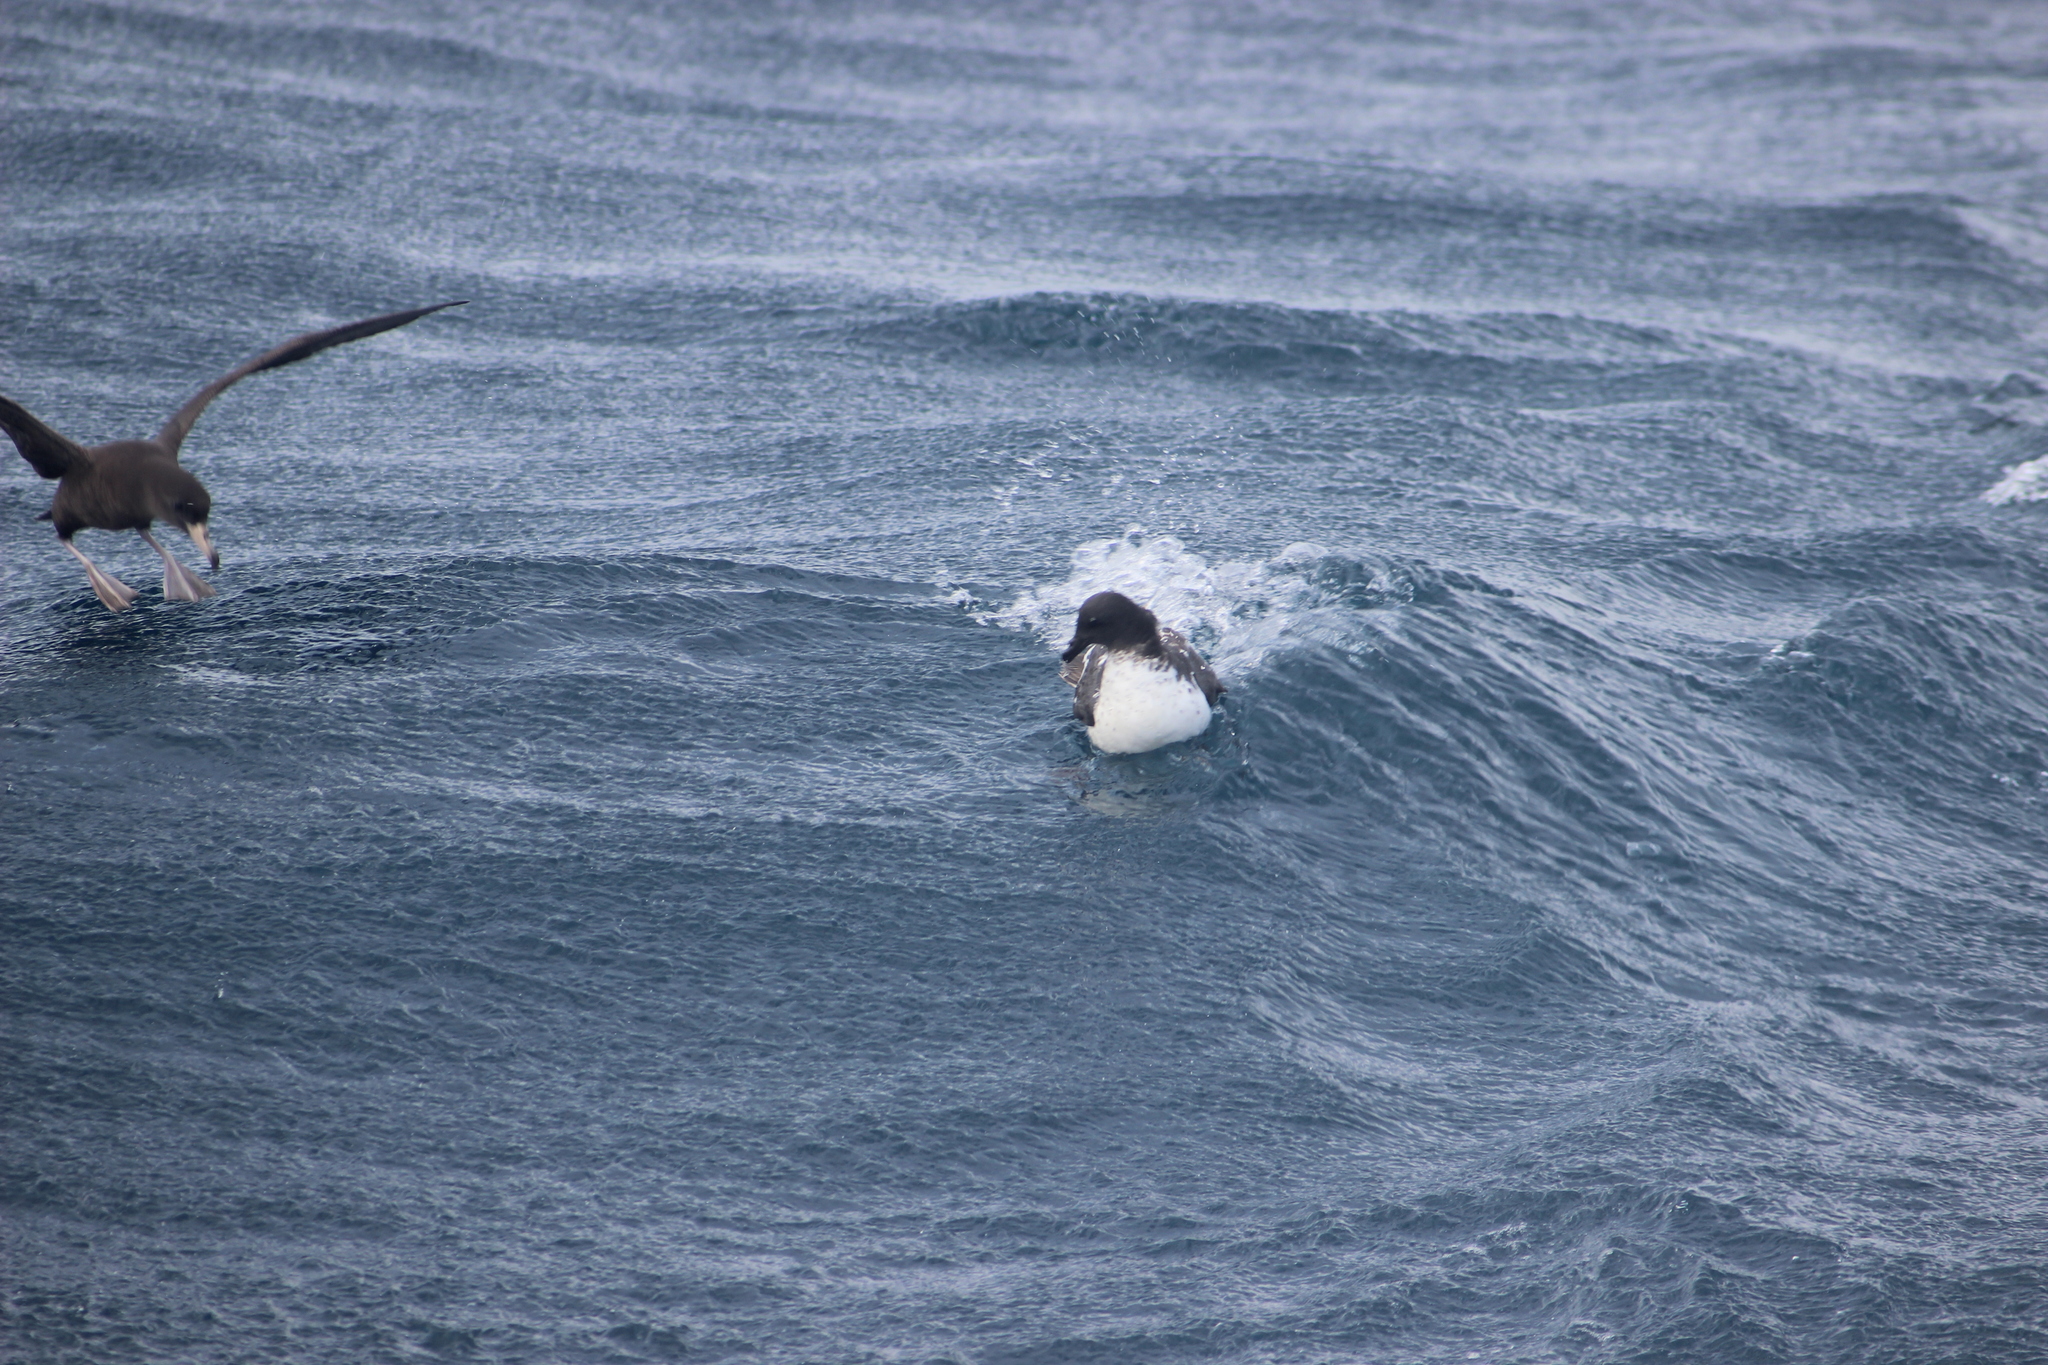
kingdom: Animalia
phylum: Chordata
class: Aves
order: Procellariiformes
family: Procellariidae
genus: Daption
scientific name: Daption capense
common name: Cape petrel
